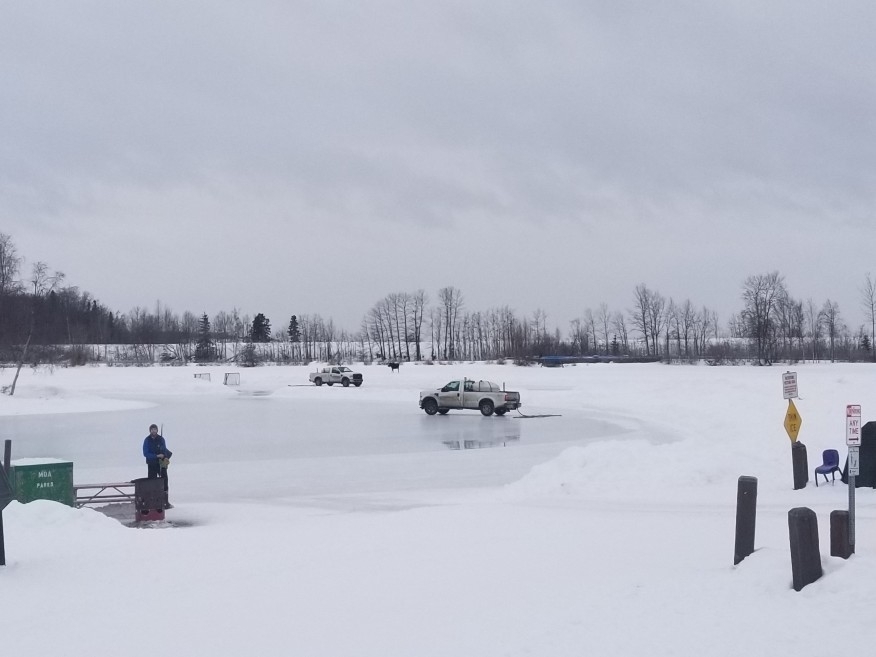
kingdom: Animalia
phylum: Chordata
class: Mammalia
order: Artiodactyla
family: Cervidae
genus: Alces
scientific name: Alces alces
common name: Moose
